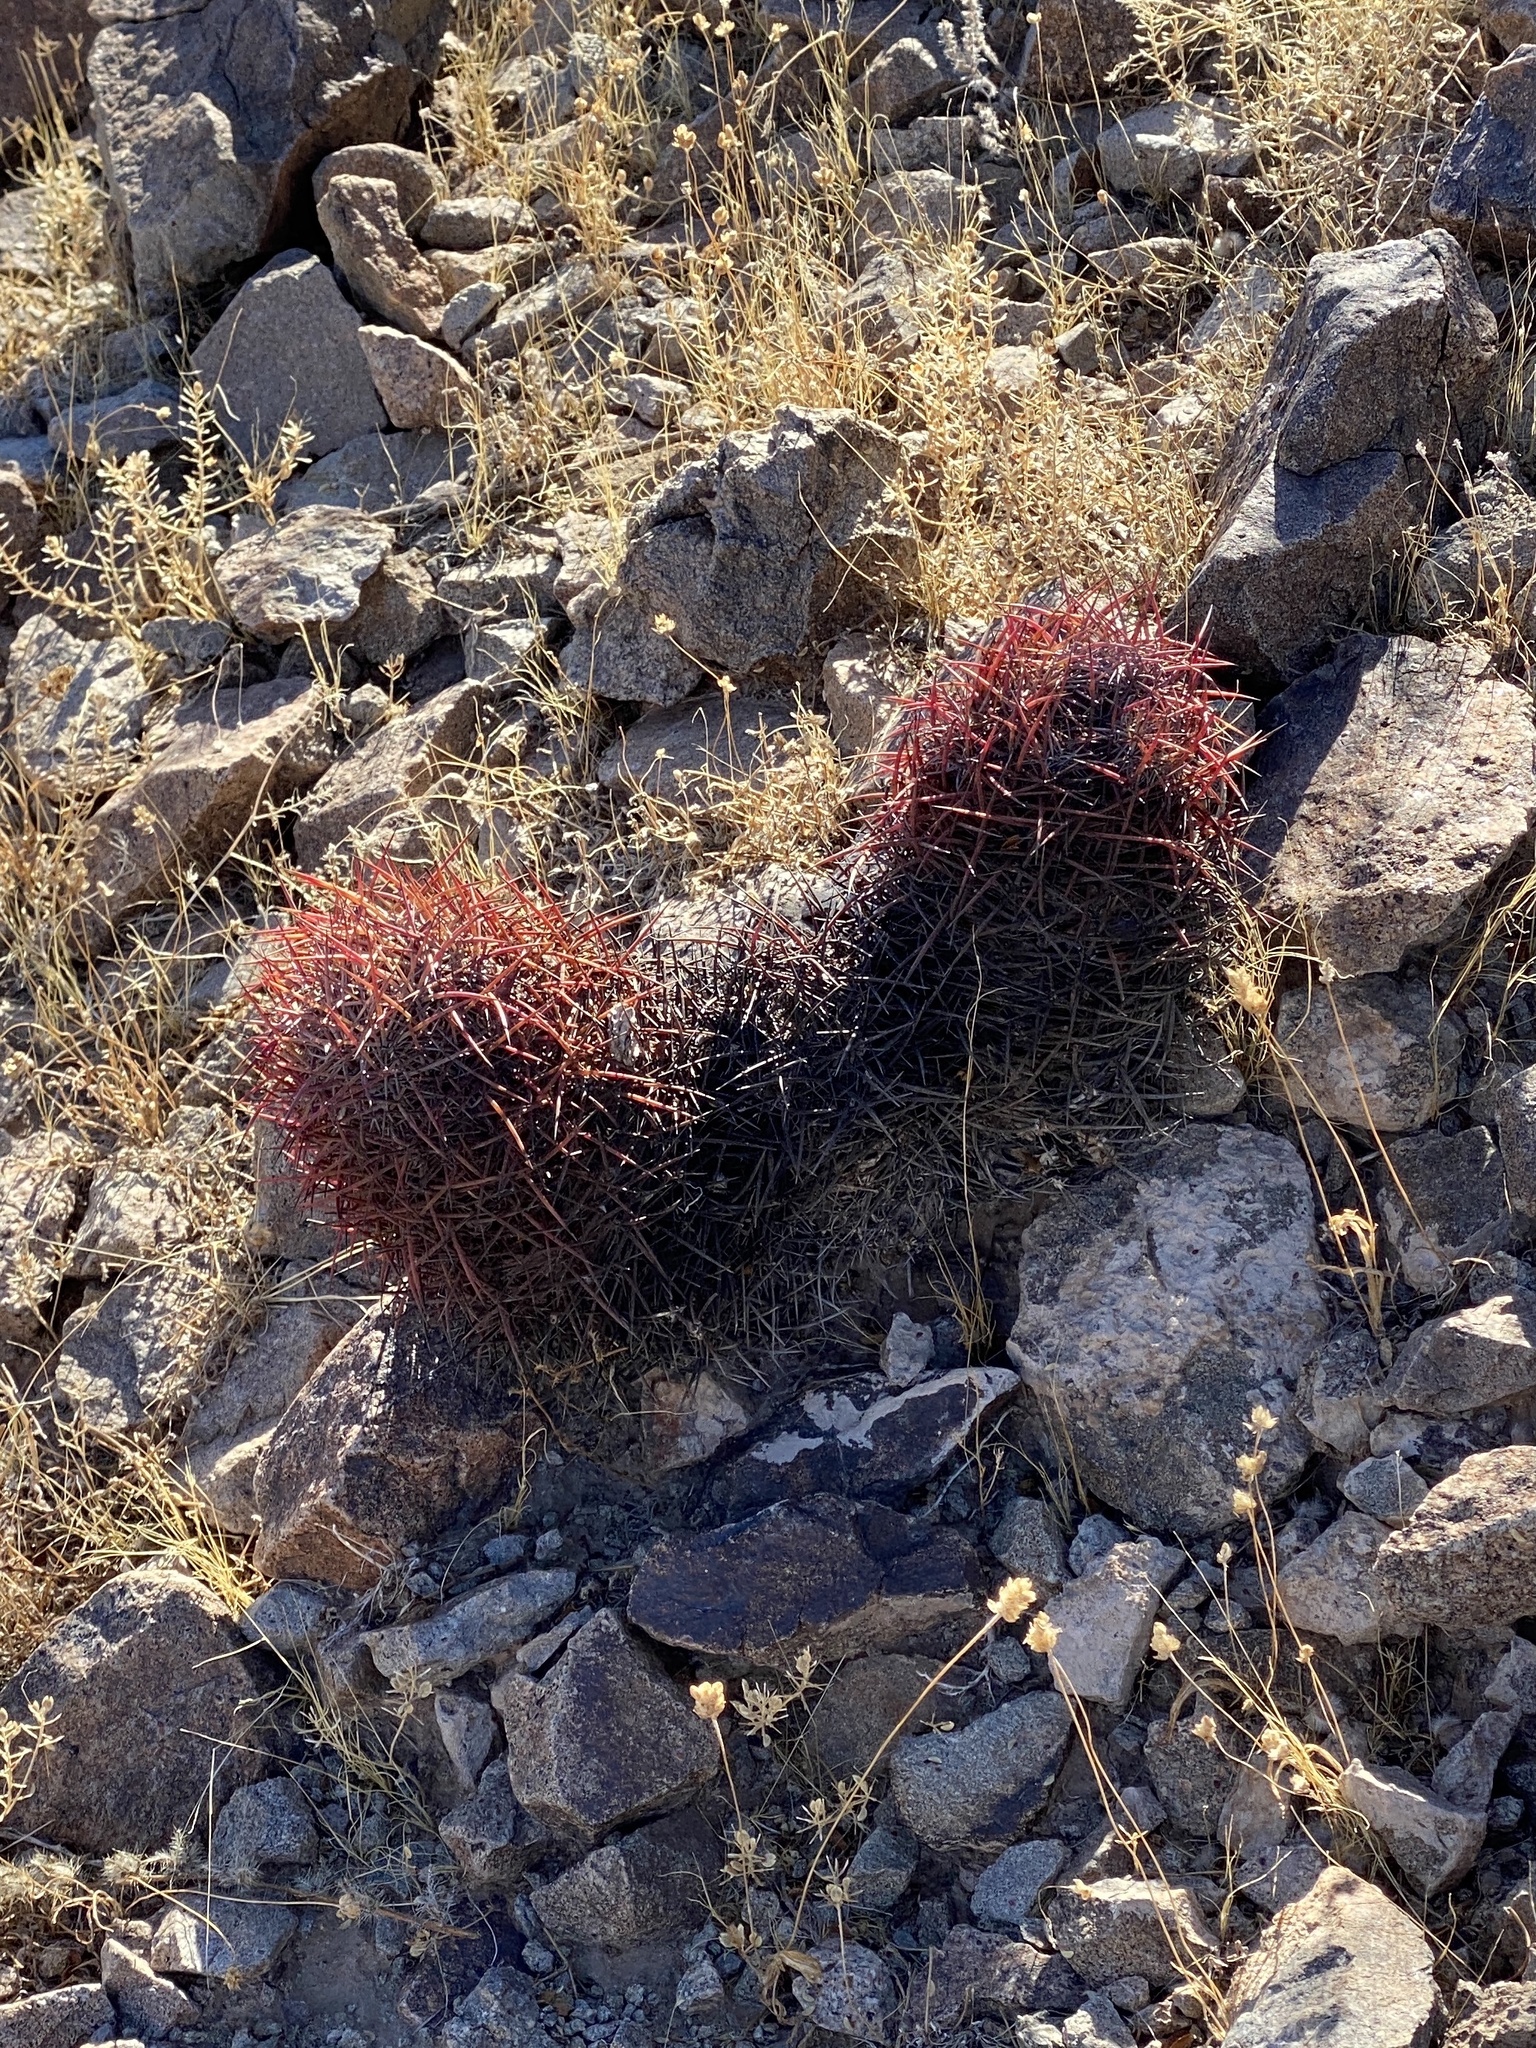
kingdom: Plantae
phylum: Tracheophyta
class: Magnoliopsida
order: Caryophyllales
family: Cactaceae
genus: Sclerocactus
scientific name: Sclerocactus johnsonii
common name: Eight-spine fishhook cactus
